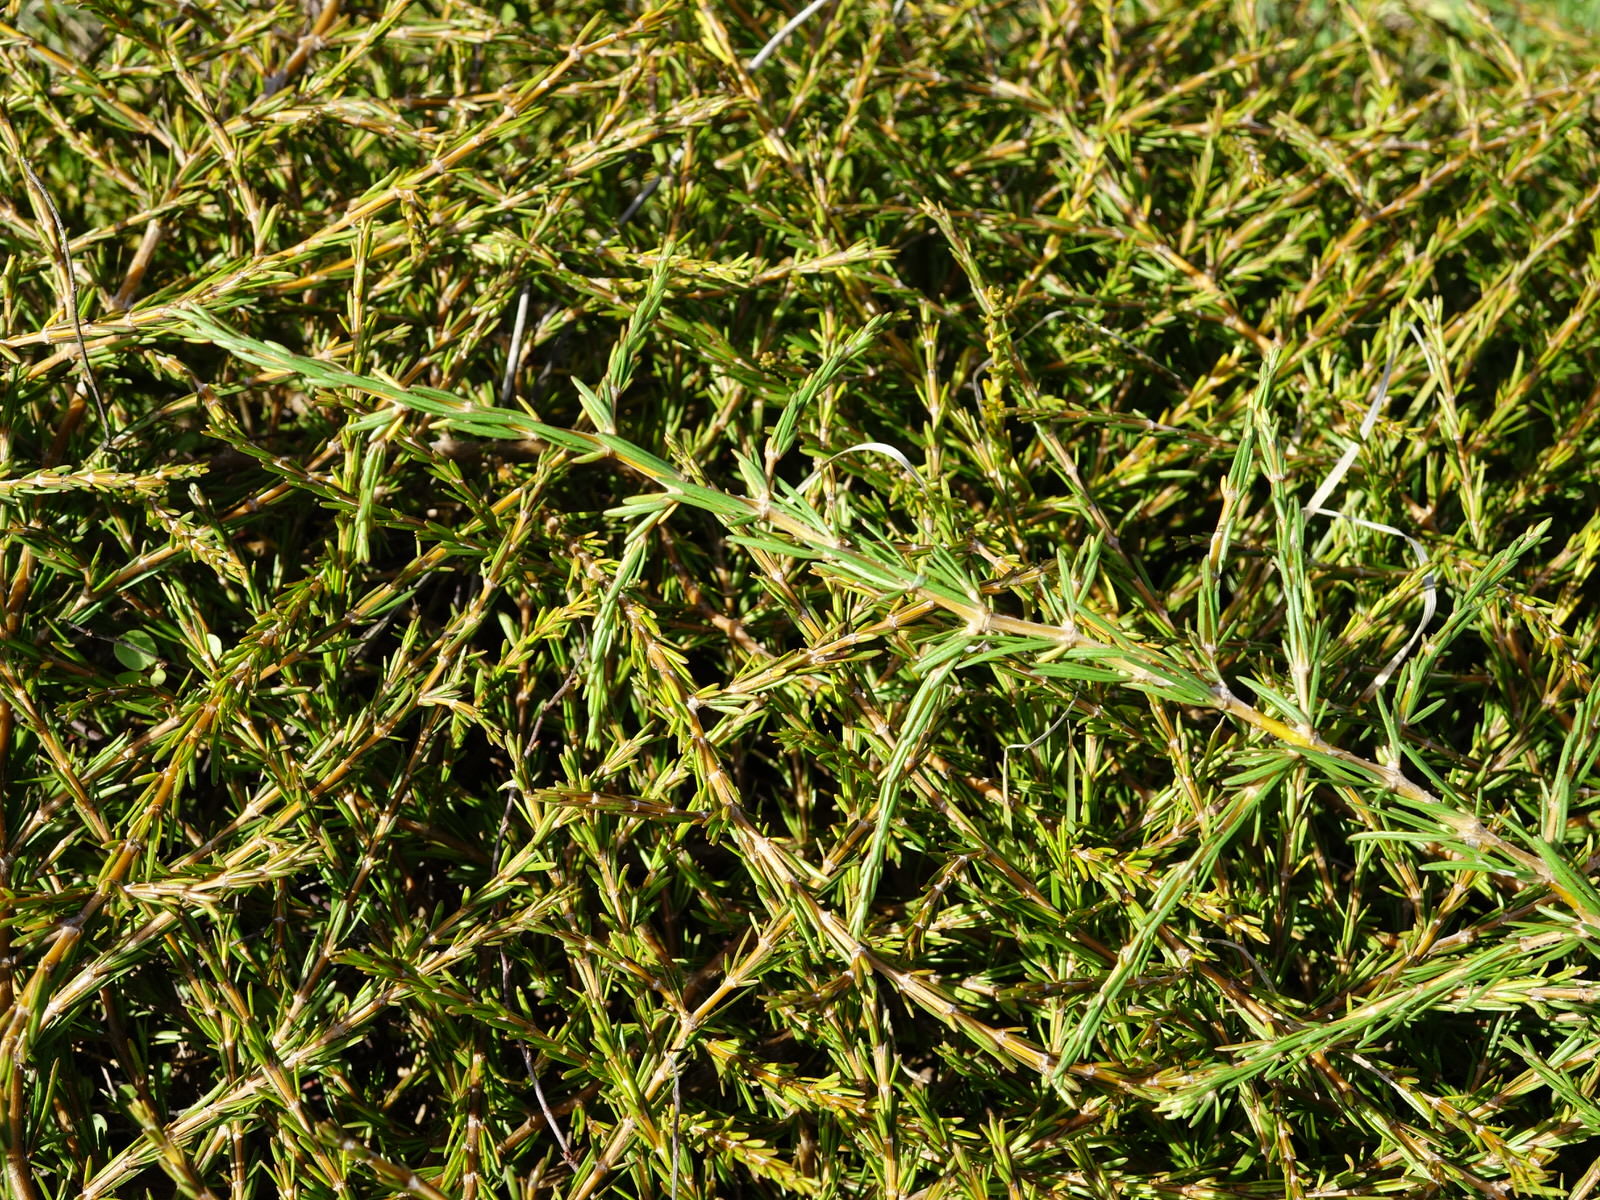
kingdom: Plantae
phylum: Tracheophyta
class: Magnoliopsida
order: Gentianales
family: Rubiaceae
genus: Coprosma
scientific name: Coprosma acerosa
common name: Sand coprosma
